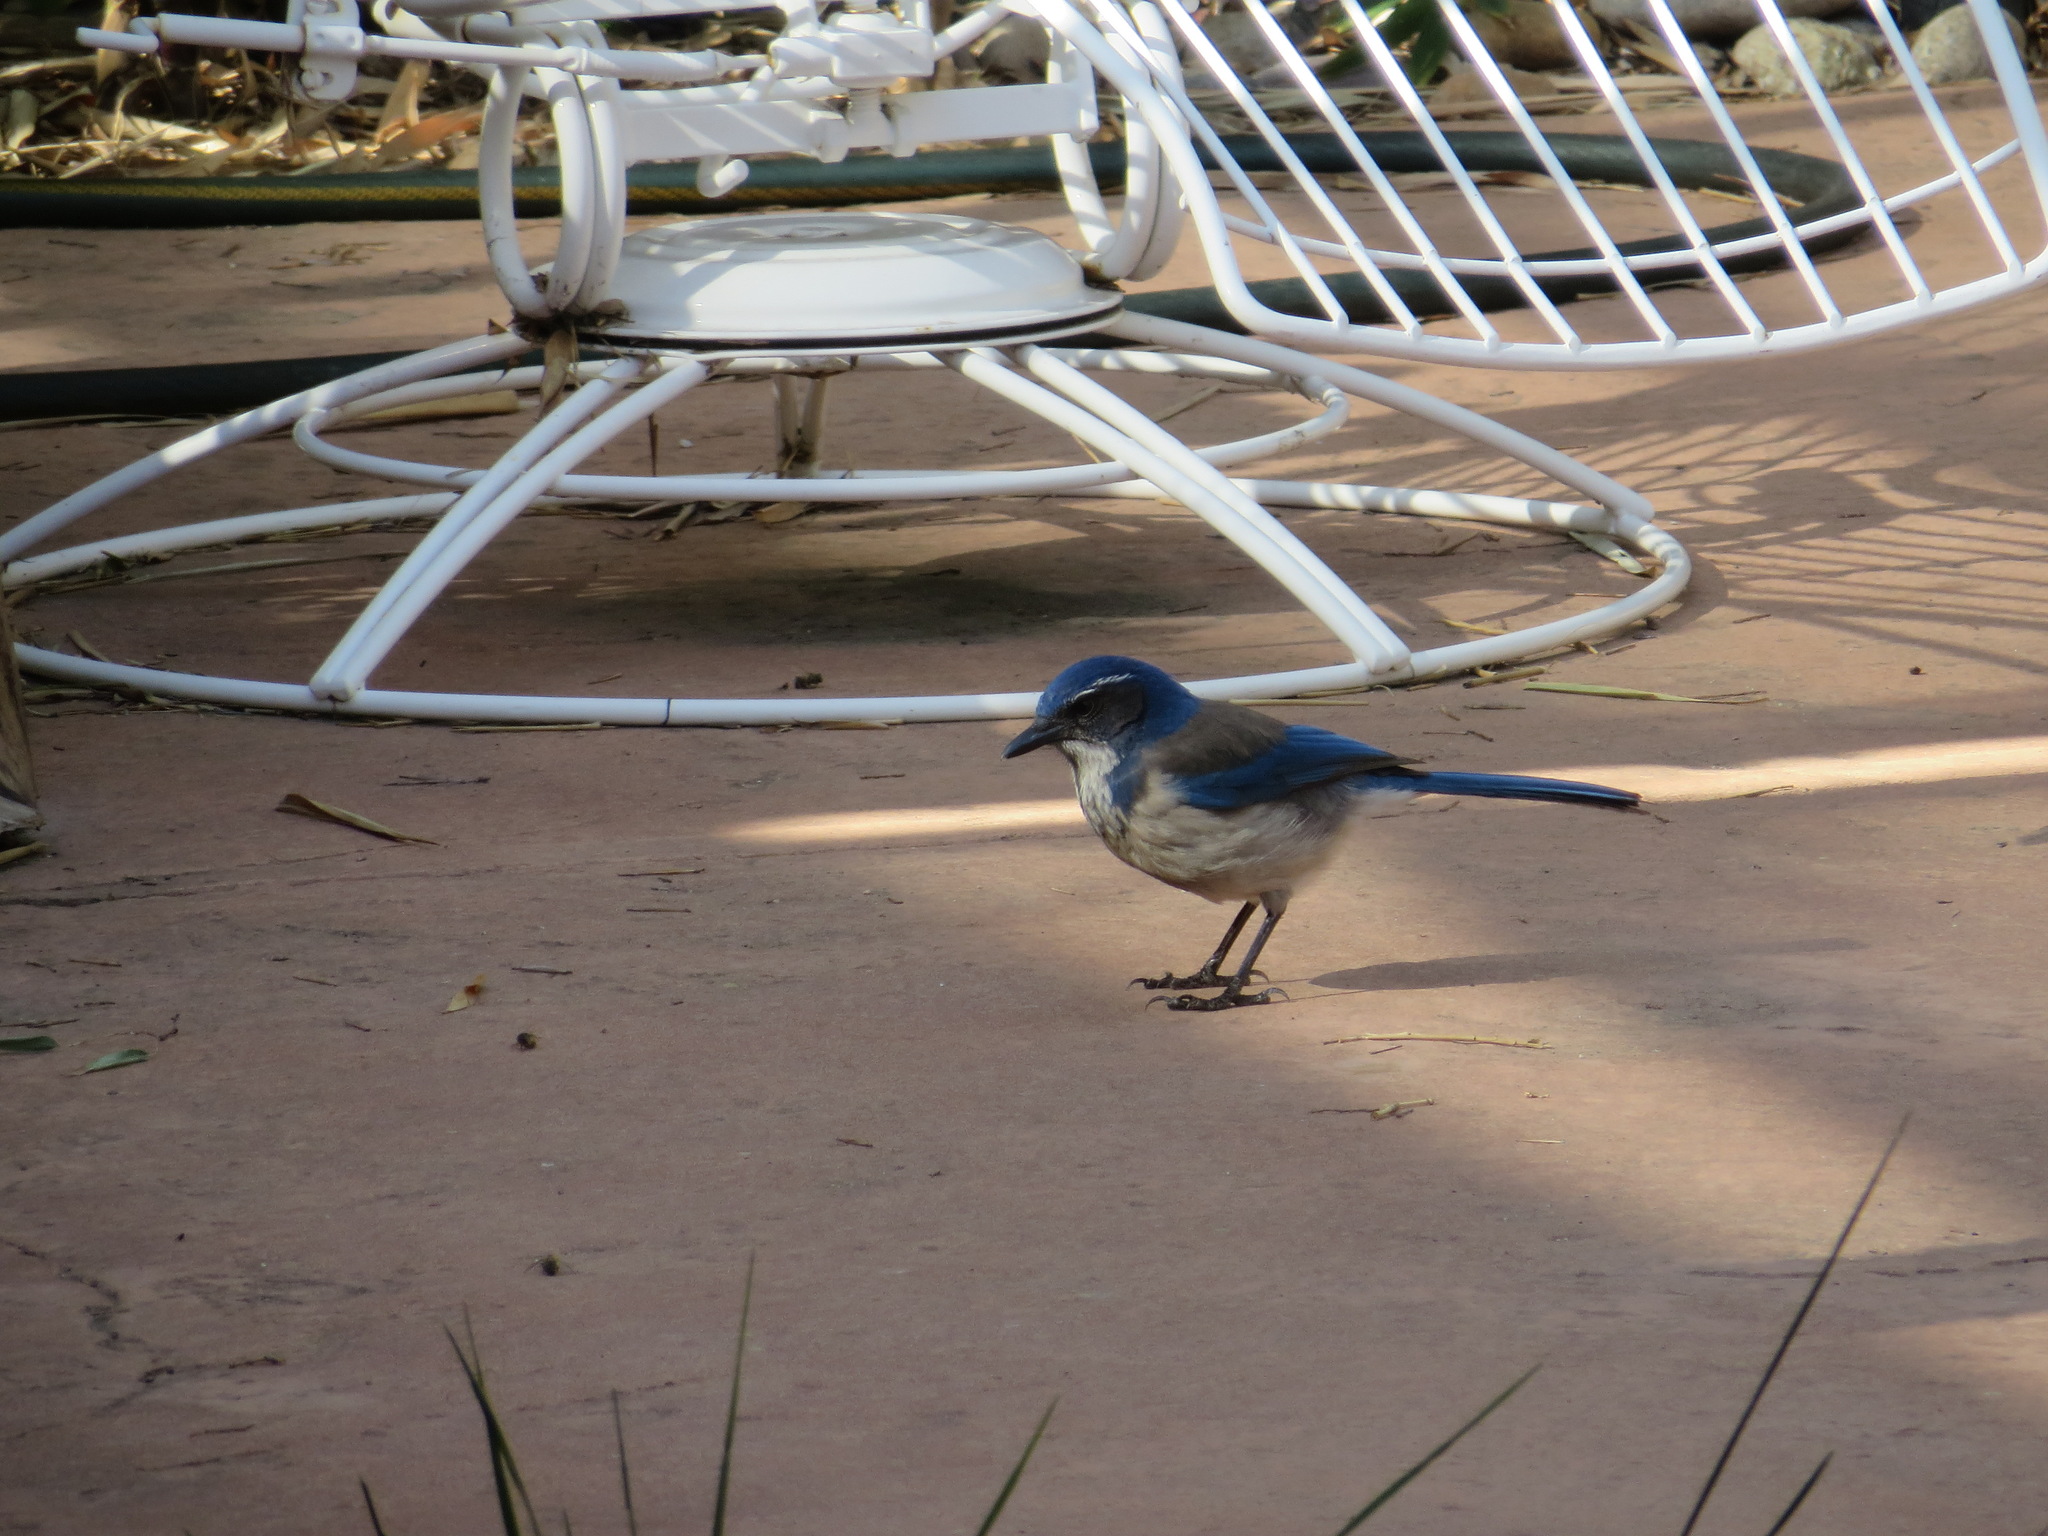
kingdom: Animalia
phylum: Chordata
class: Aves
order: Passeriformes
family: Corvidae
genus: Aphelocoma
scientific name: Aphelocoma californica
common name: California scrub-jay
